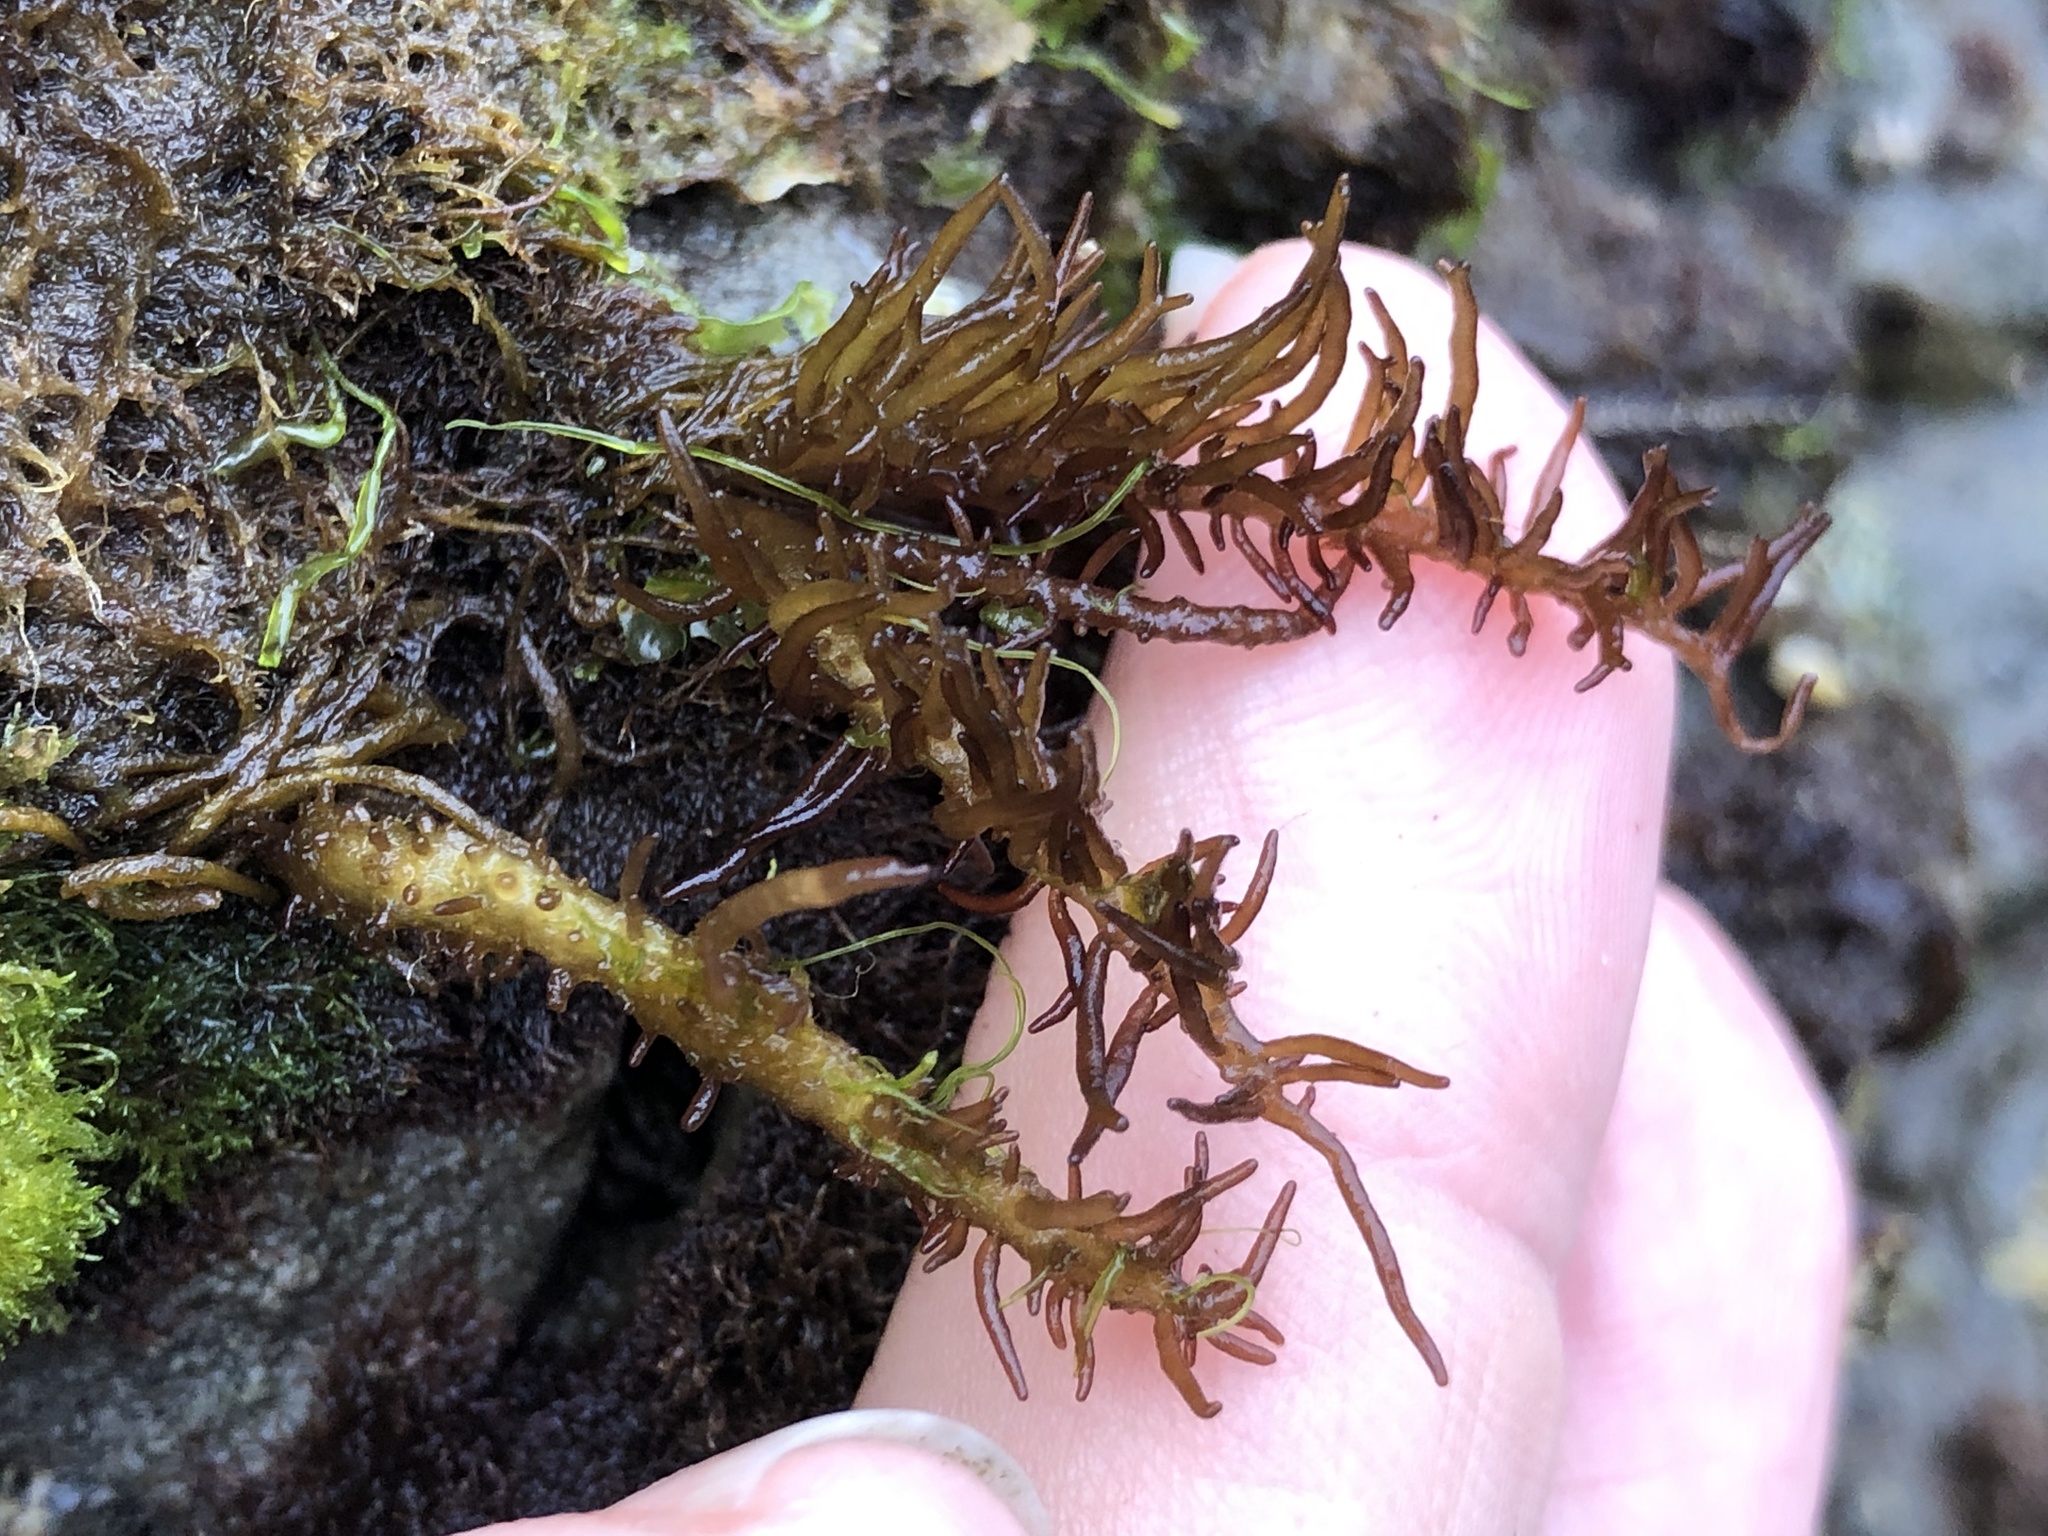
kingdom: Plantae
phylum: Rhodophyta
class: Florideophyceae
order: Nemaliales
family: Liagoraceae
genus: Cumagloia
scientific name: Cumagloia andersonii
